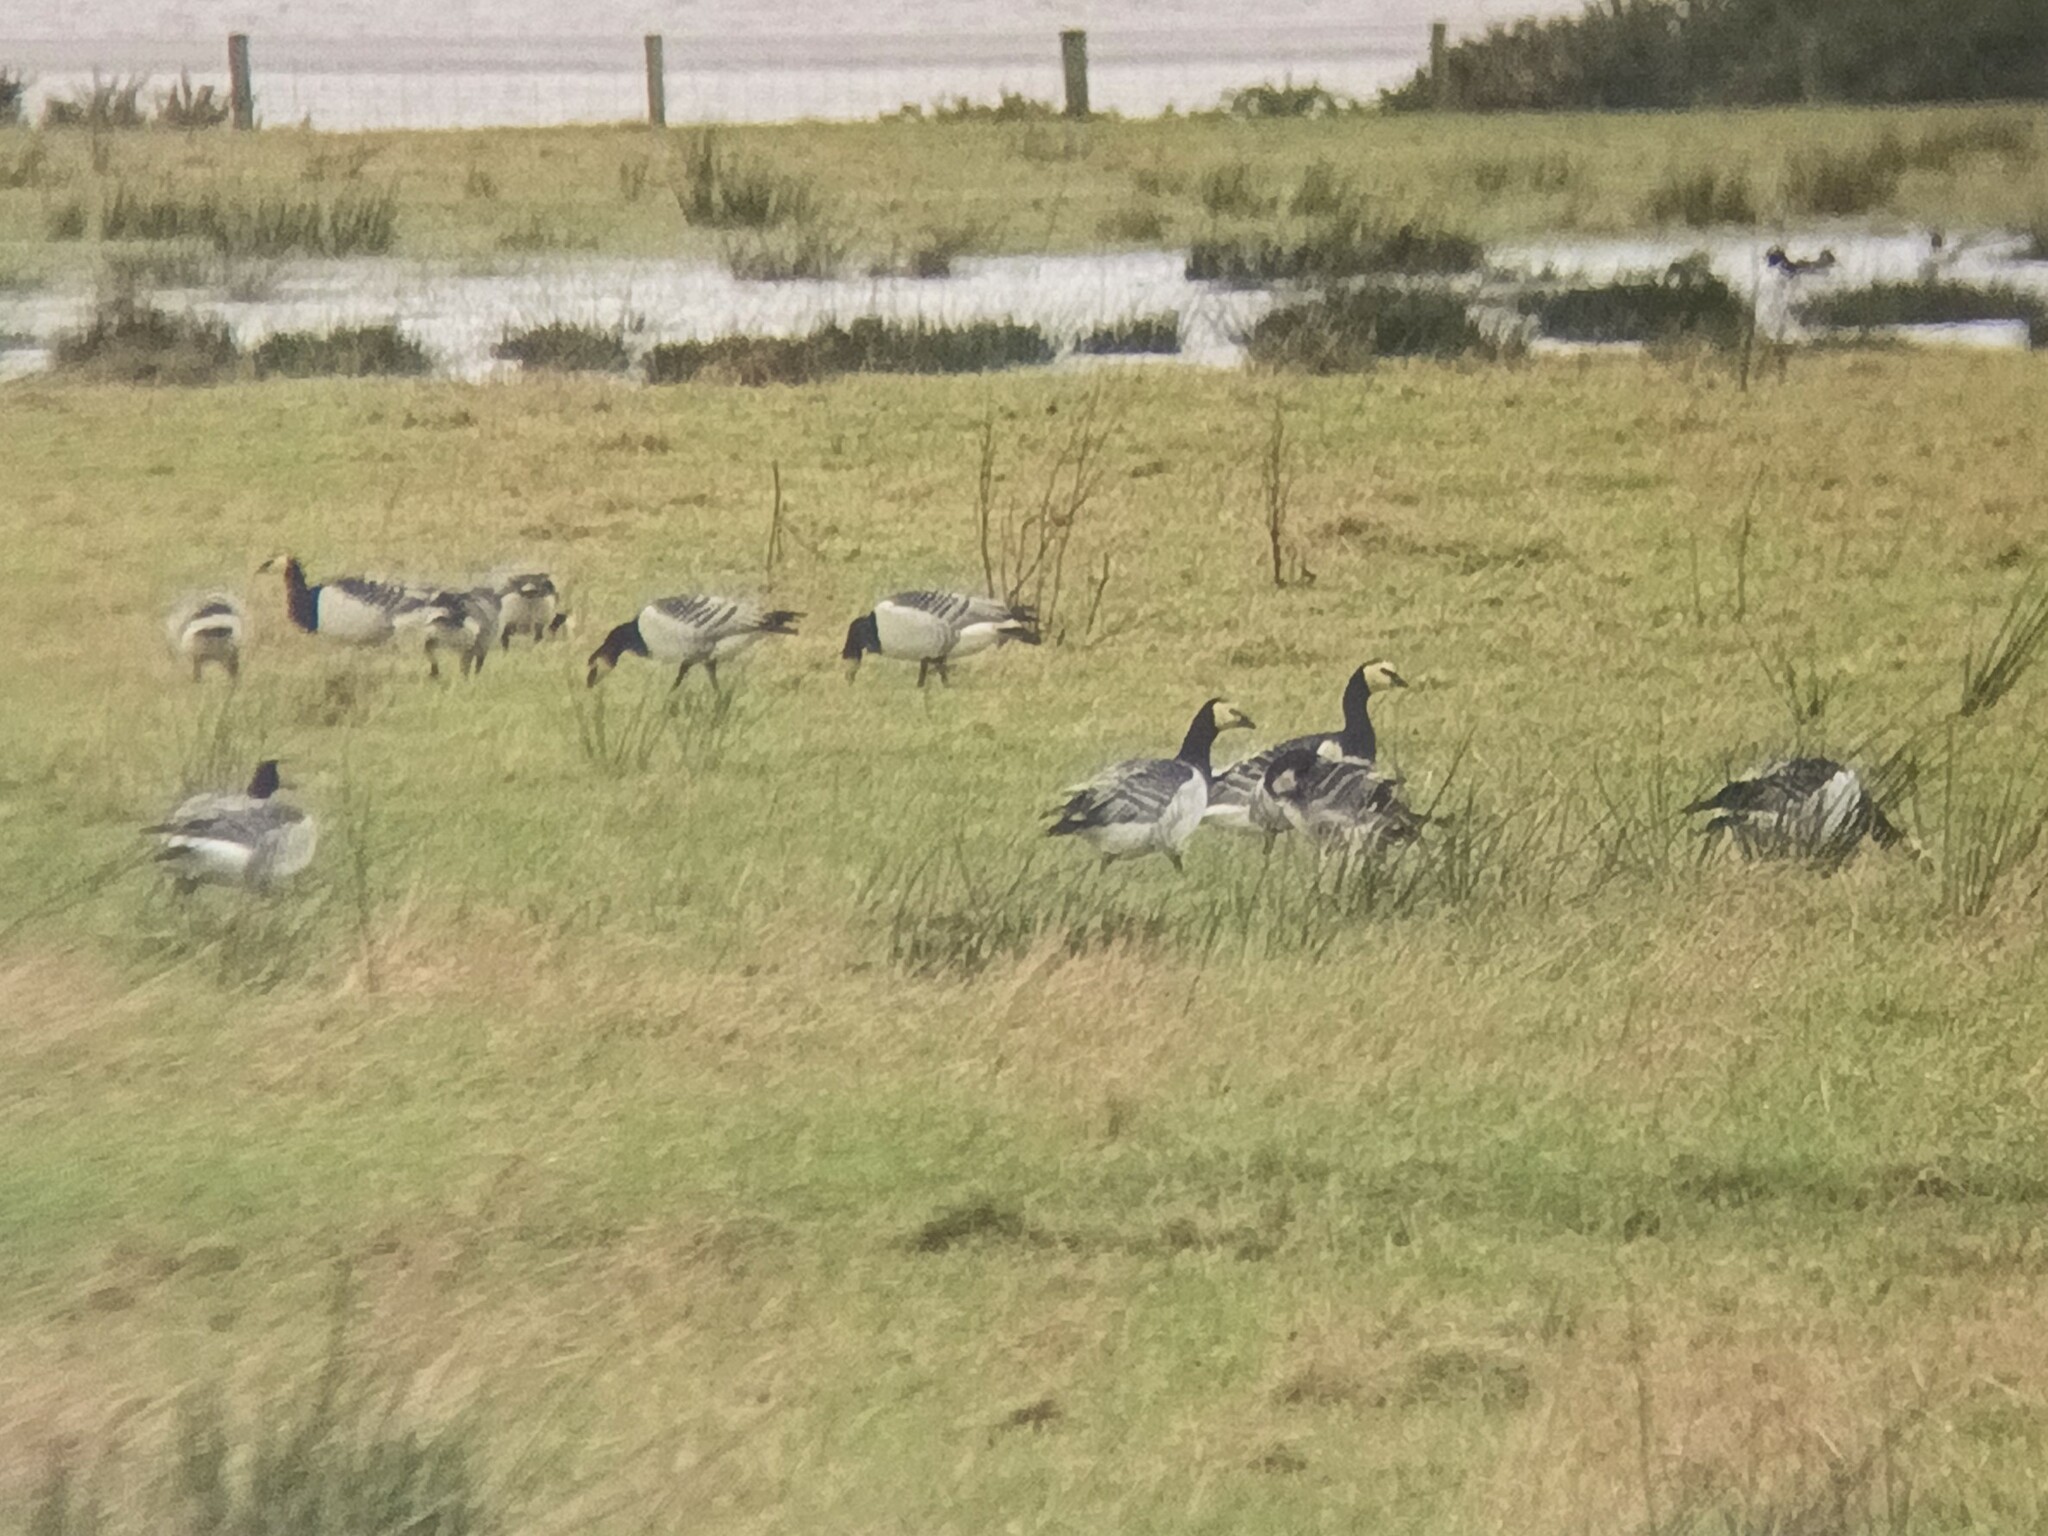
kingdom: Animalia
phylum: Chordata
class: Aves
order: Anseriformes
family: Anatidae
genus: Branta
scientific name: Branta leucopsis
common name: Barnacle goose
